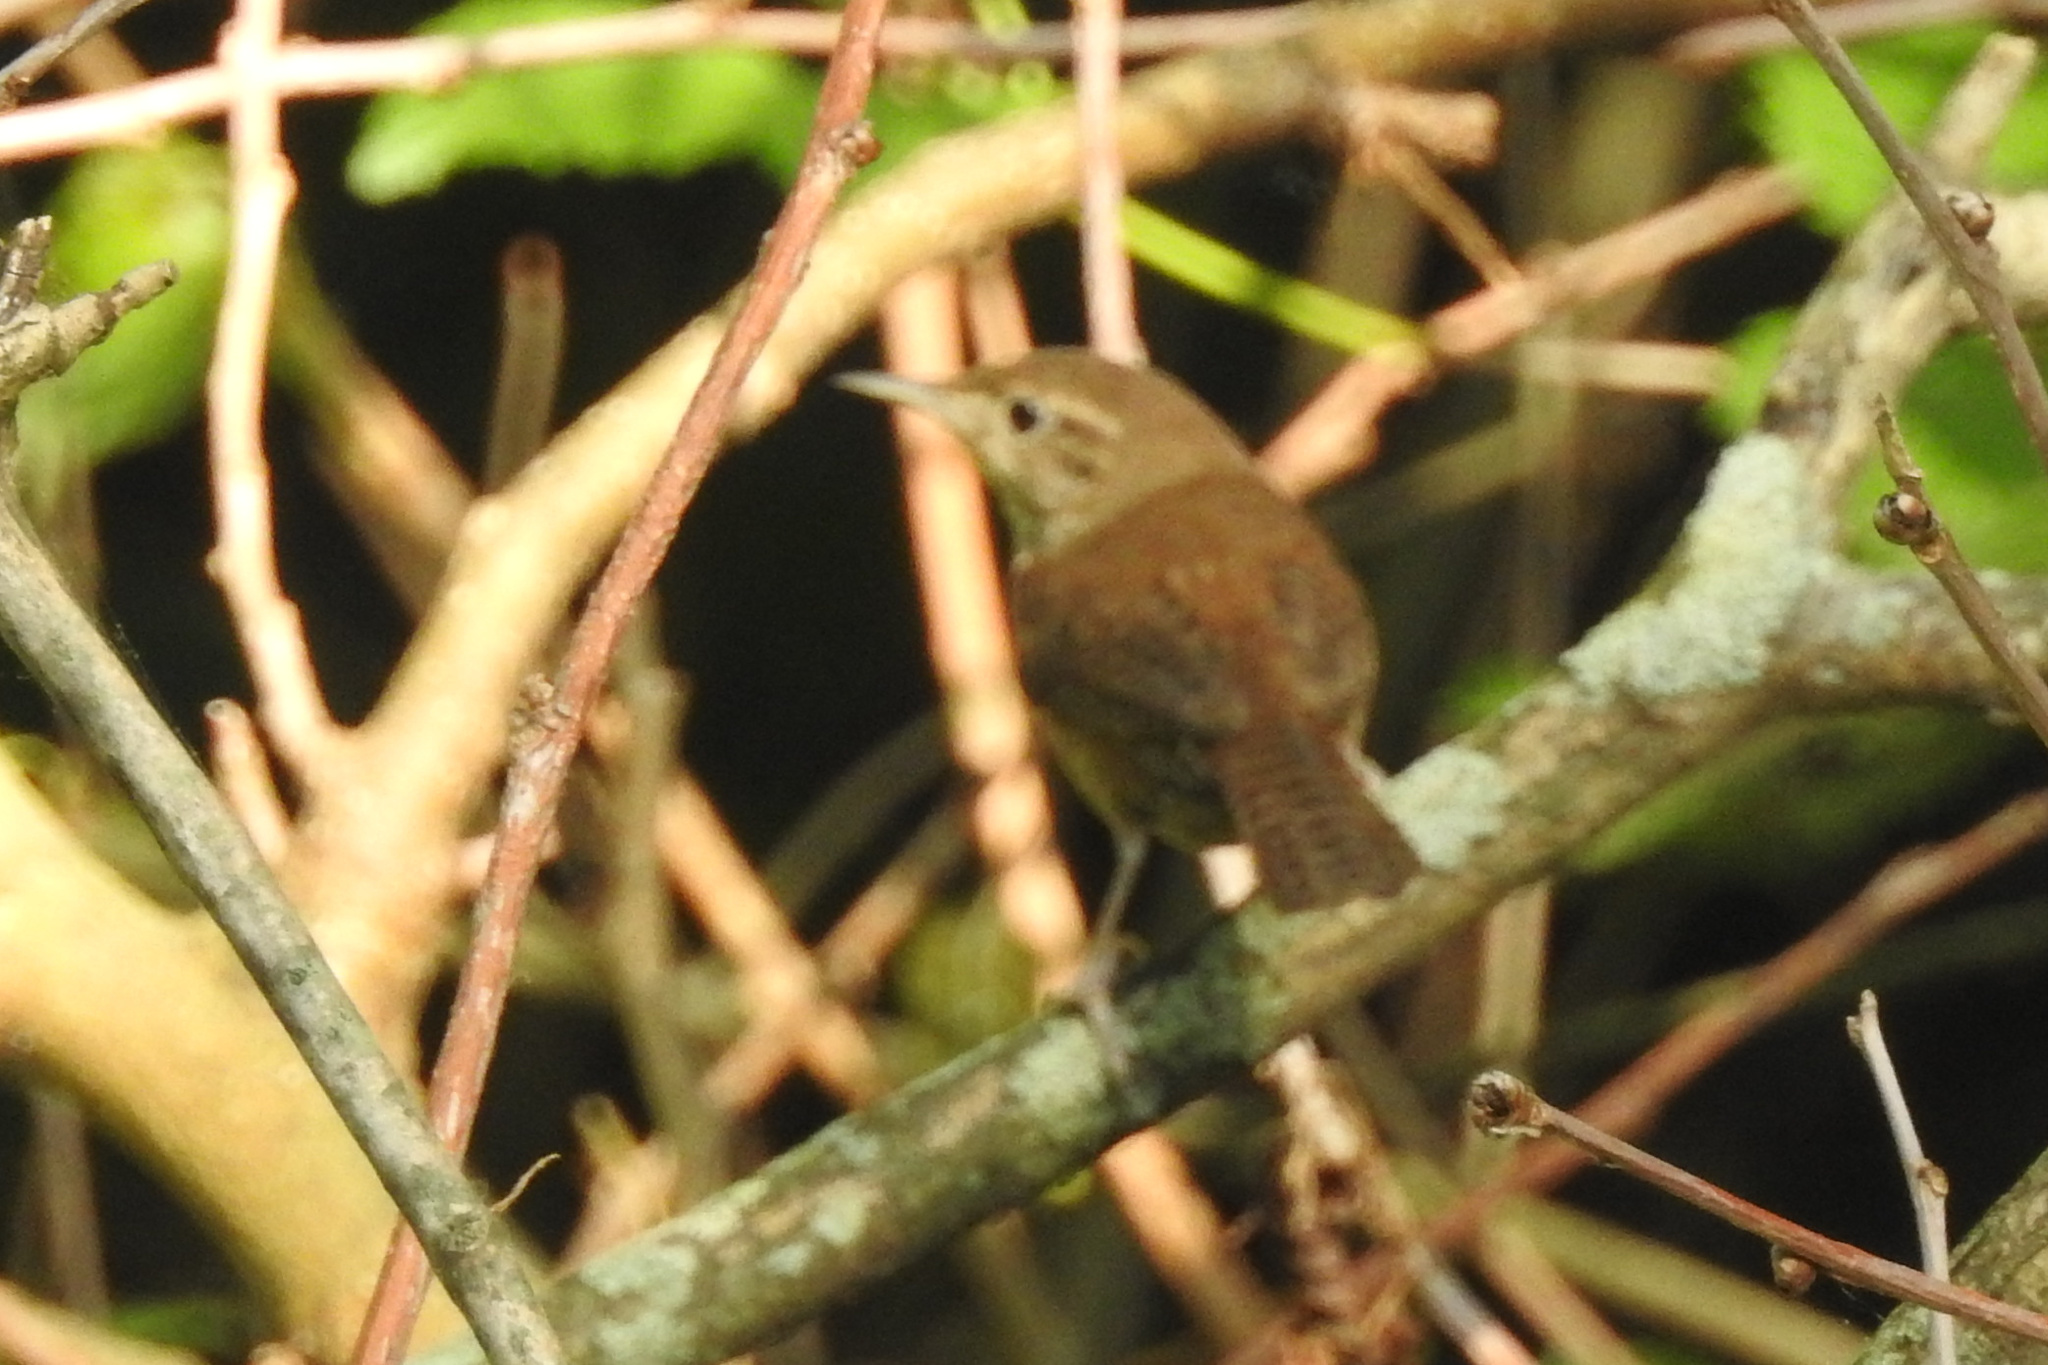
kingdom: Animalia
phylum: Chordata
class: Aves
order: Passeriformes
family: Troglodytidae
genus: Troglodytes
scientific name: Troglodytes aedon
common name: House wren
